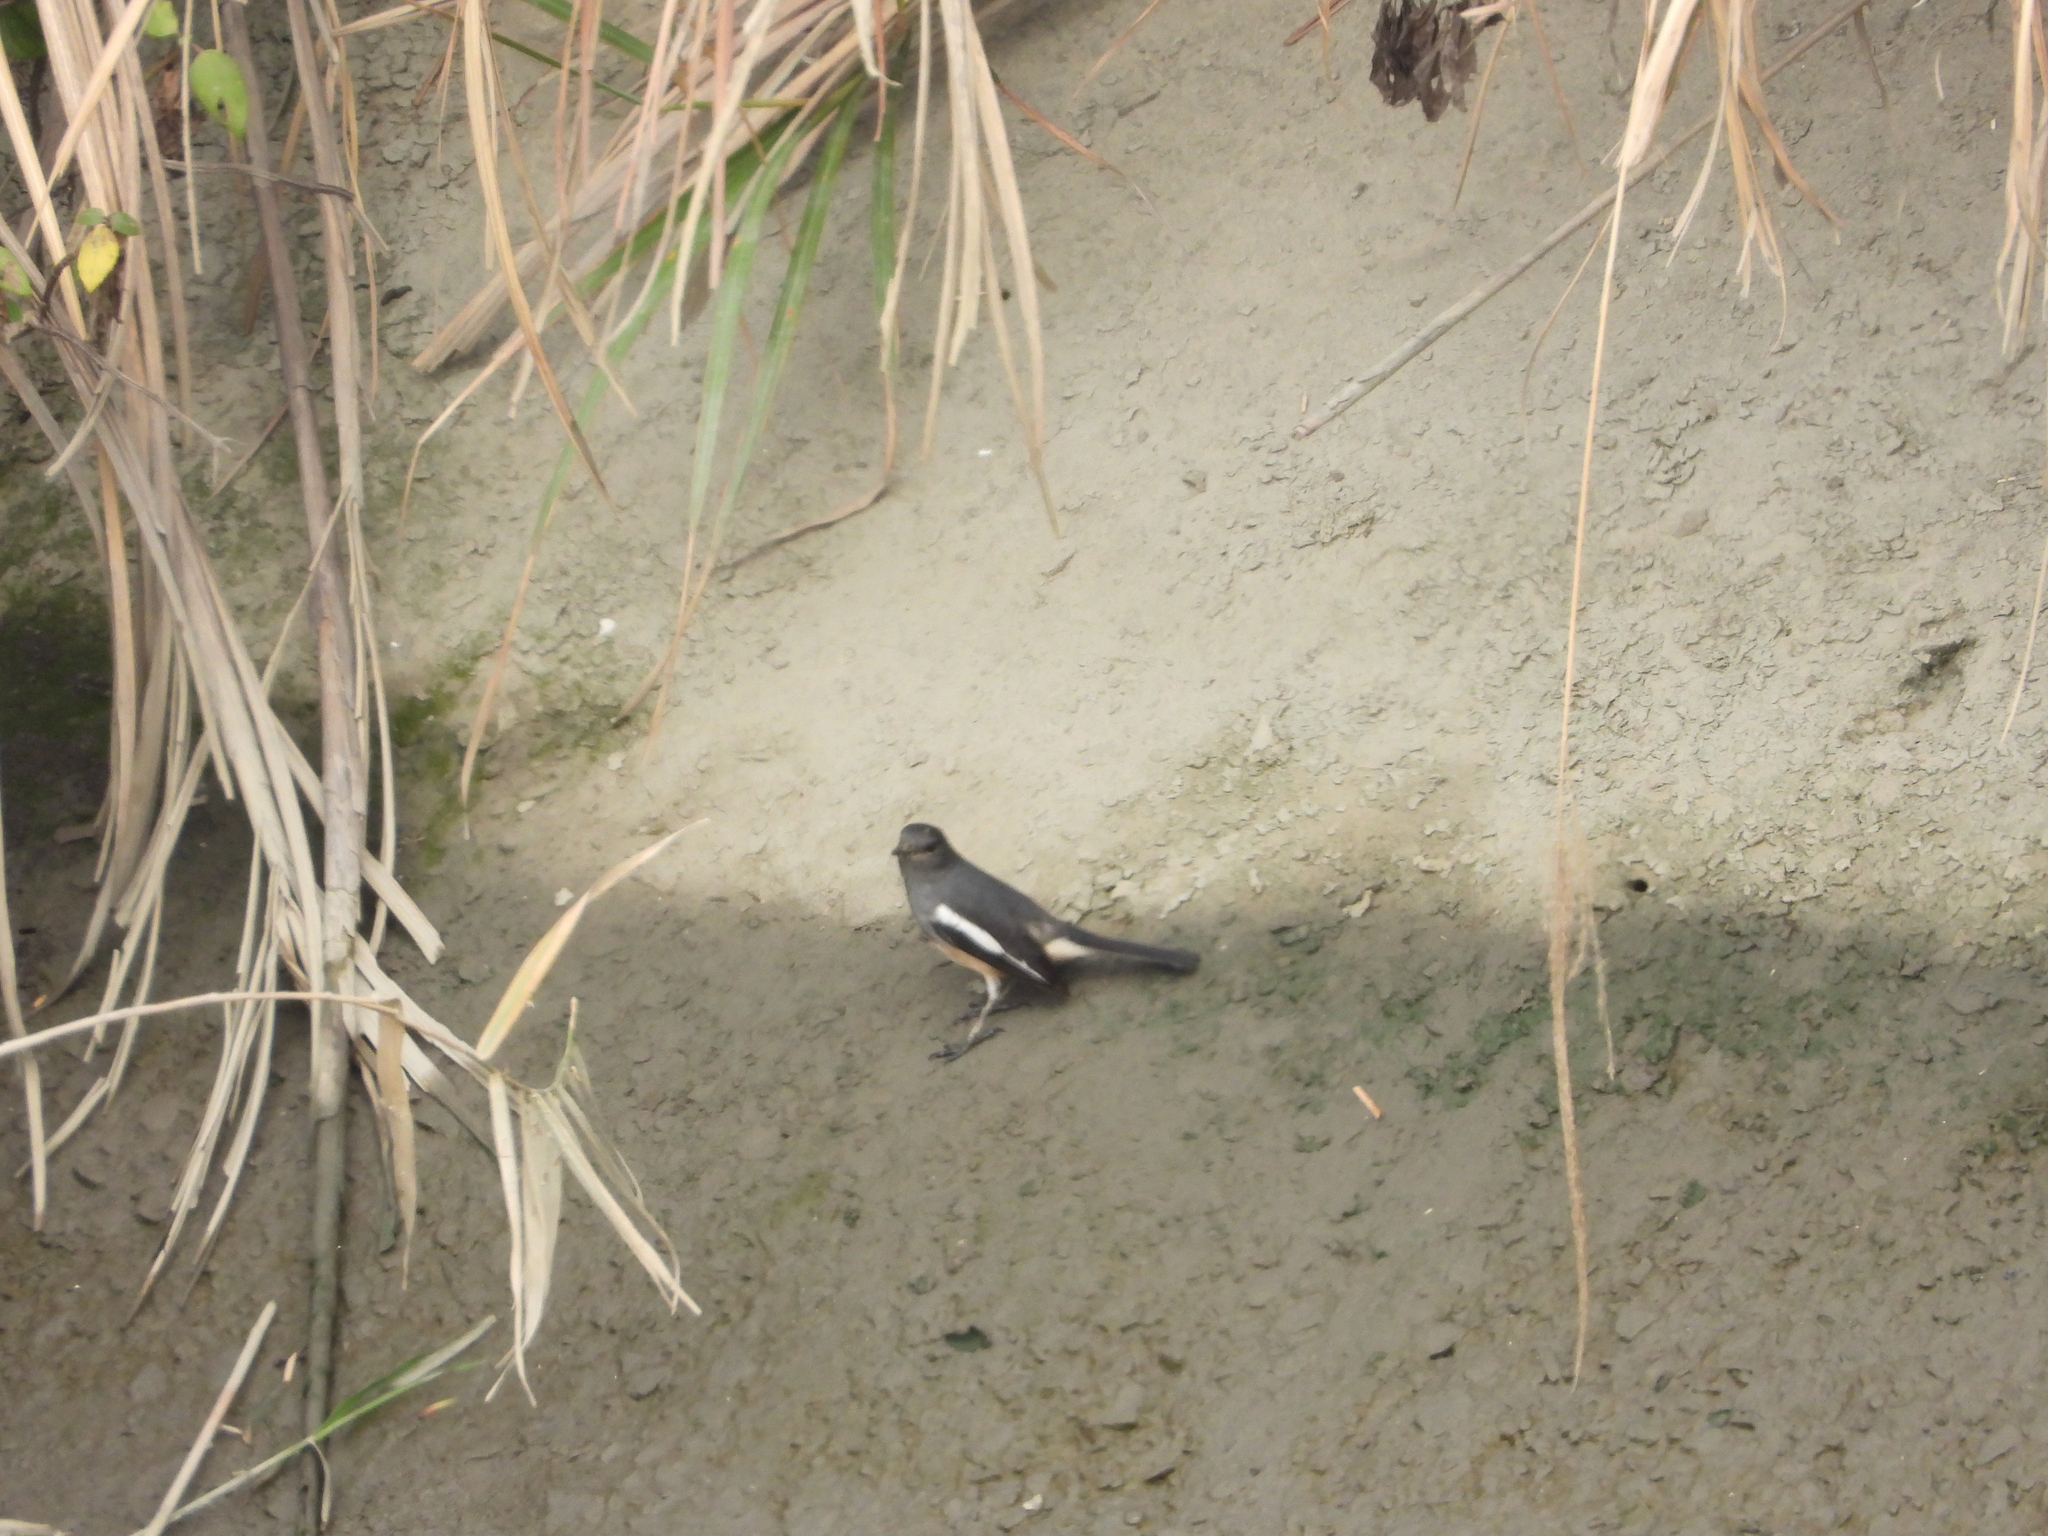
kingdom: Animalia
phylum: Chordata
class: Aves
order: Passeriformes
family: Muscicapidae
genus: Copsychus
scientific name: Copsychus saularis
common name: Oriental magpie-robin
